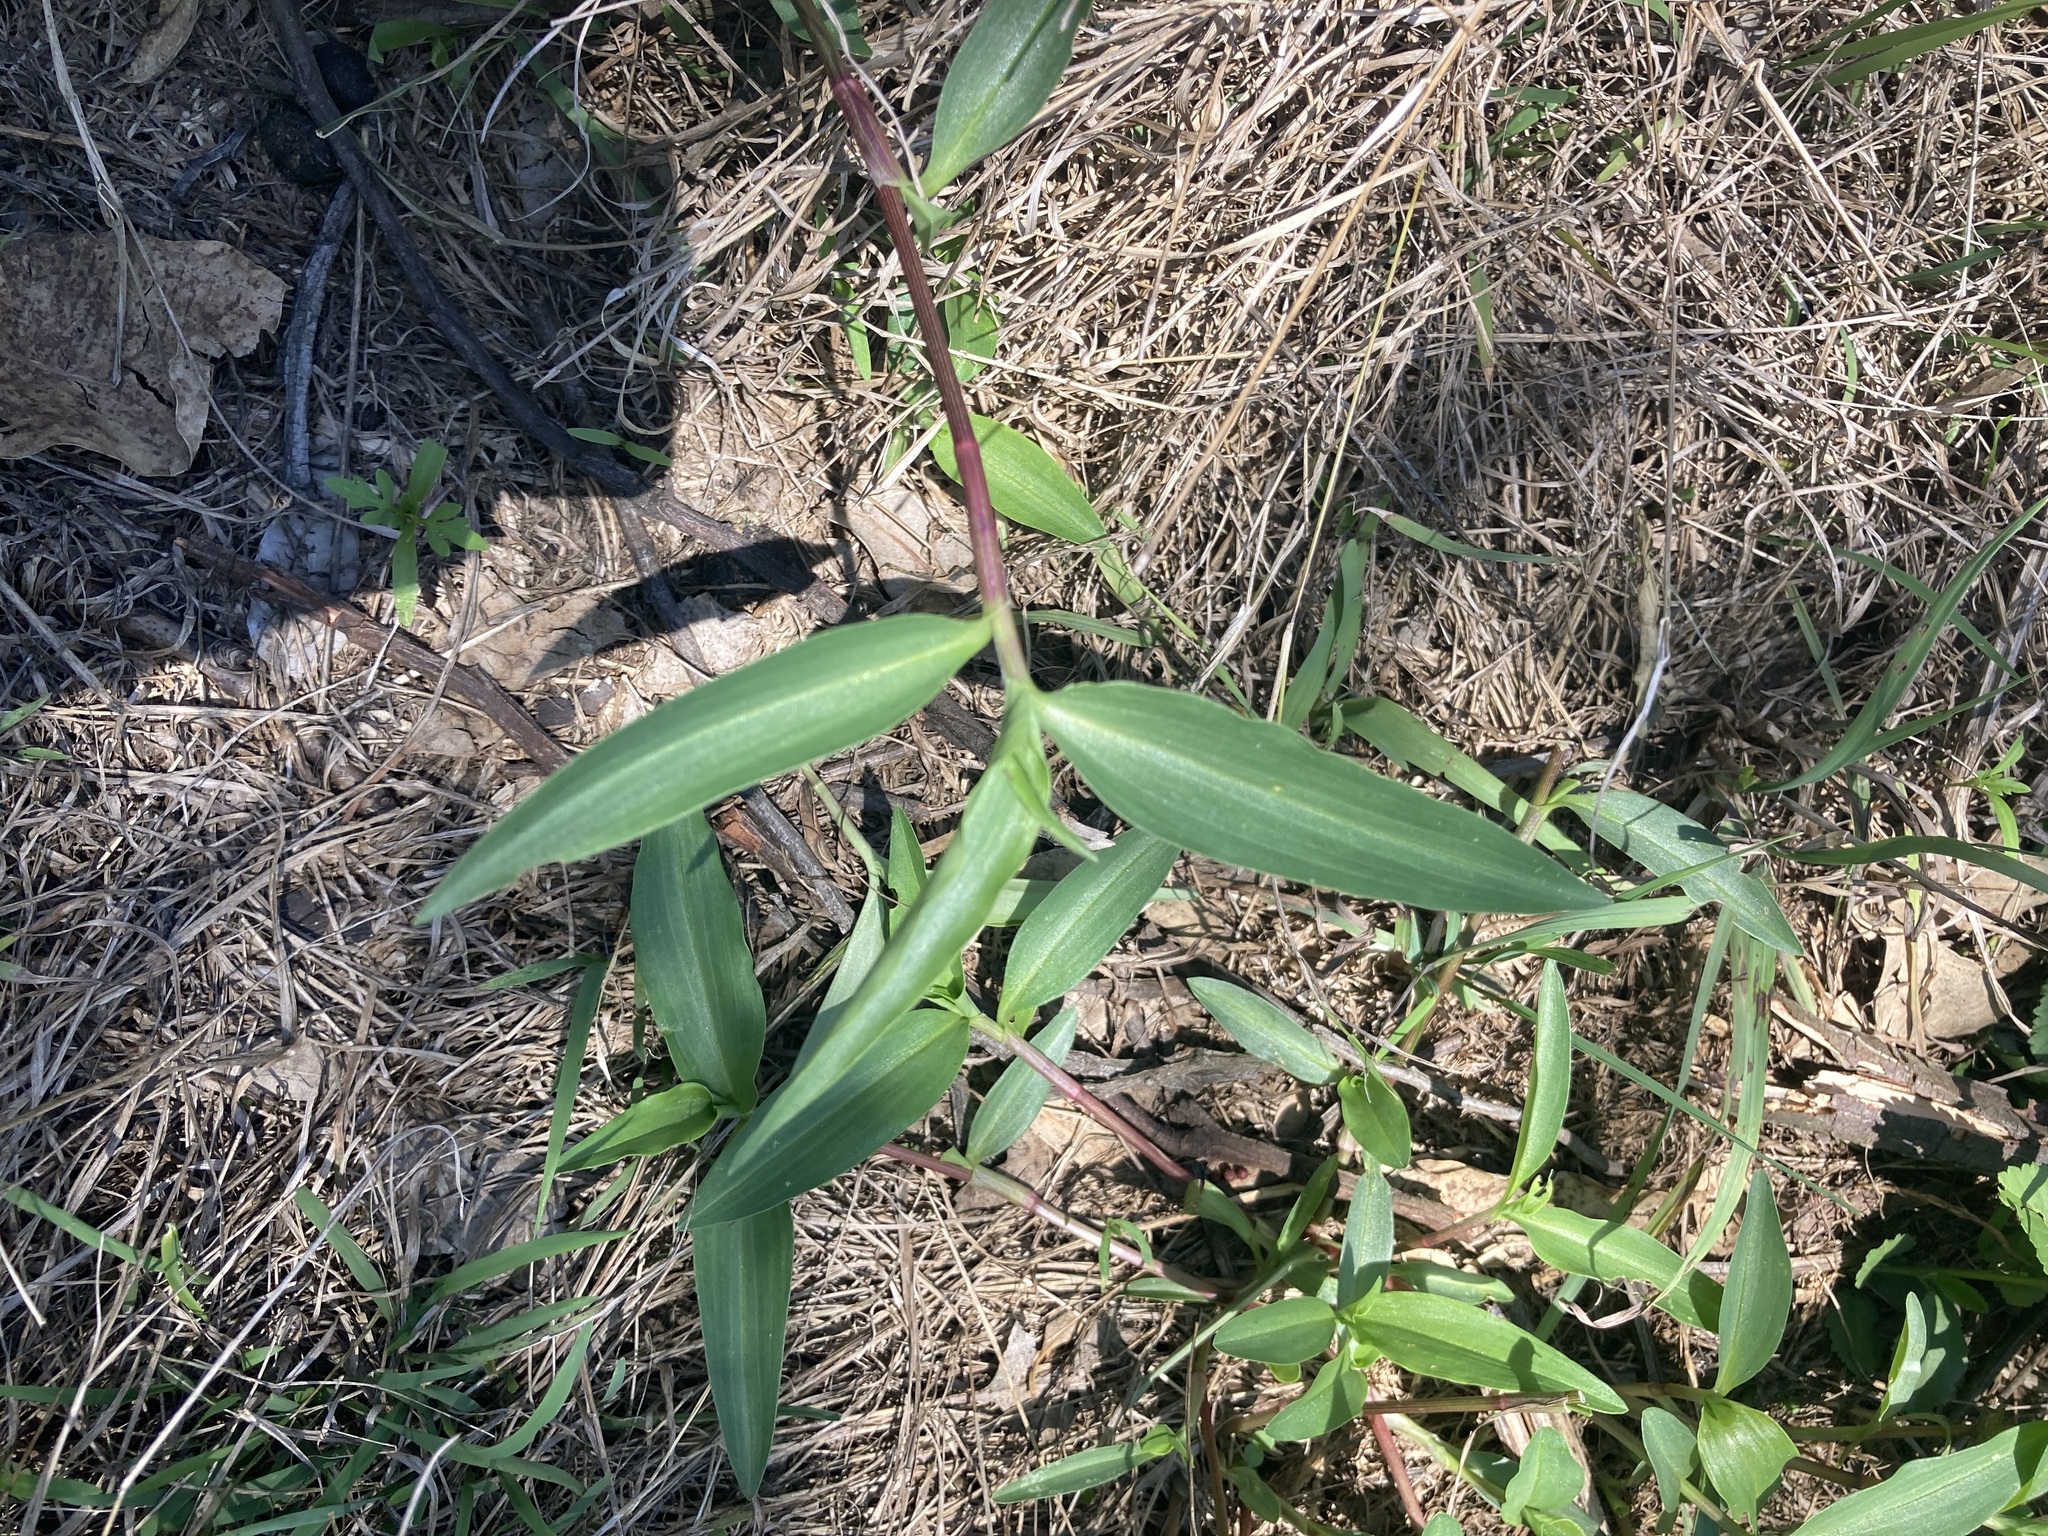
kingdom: Plantae
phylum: Tracheophyta
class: Liliopsida
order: Commelinales
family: Commelinaceae
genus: Commelina
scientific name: Commelina cyanea
